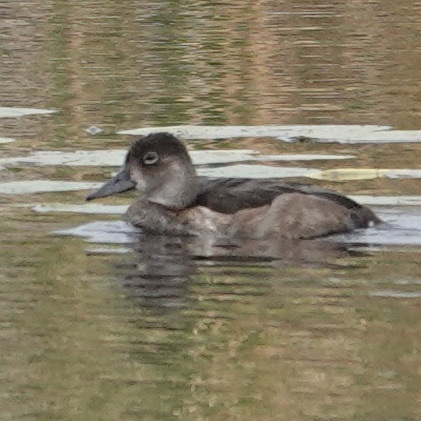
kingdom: Animalia
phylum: Chordata
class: Aves
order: Anseriformes
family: Anatidae
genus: Aythya
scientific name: Aythya collaris
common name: Ring-necked duck
